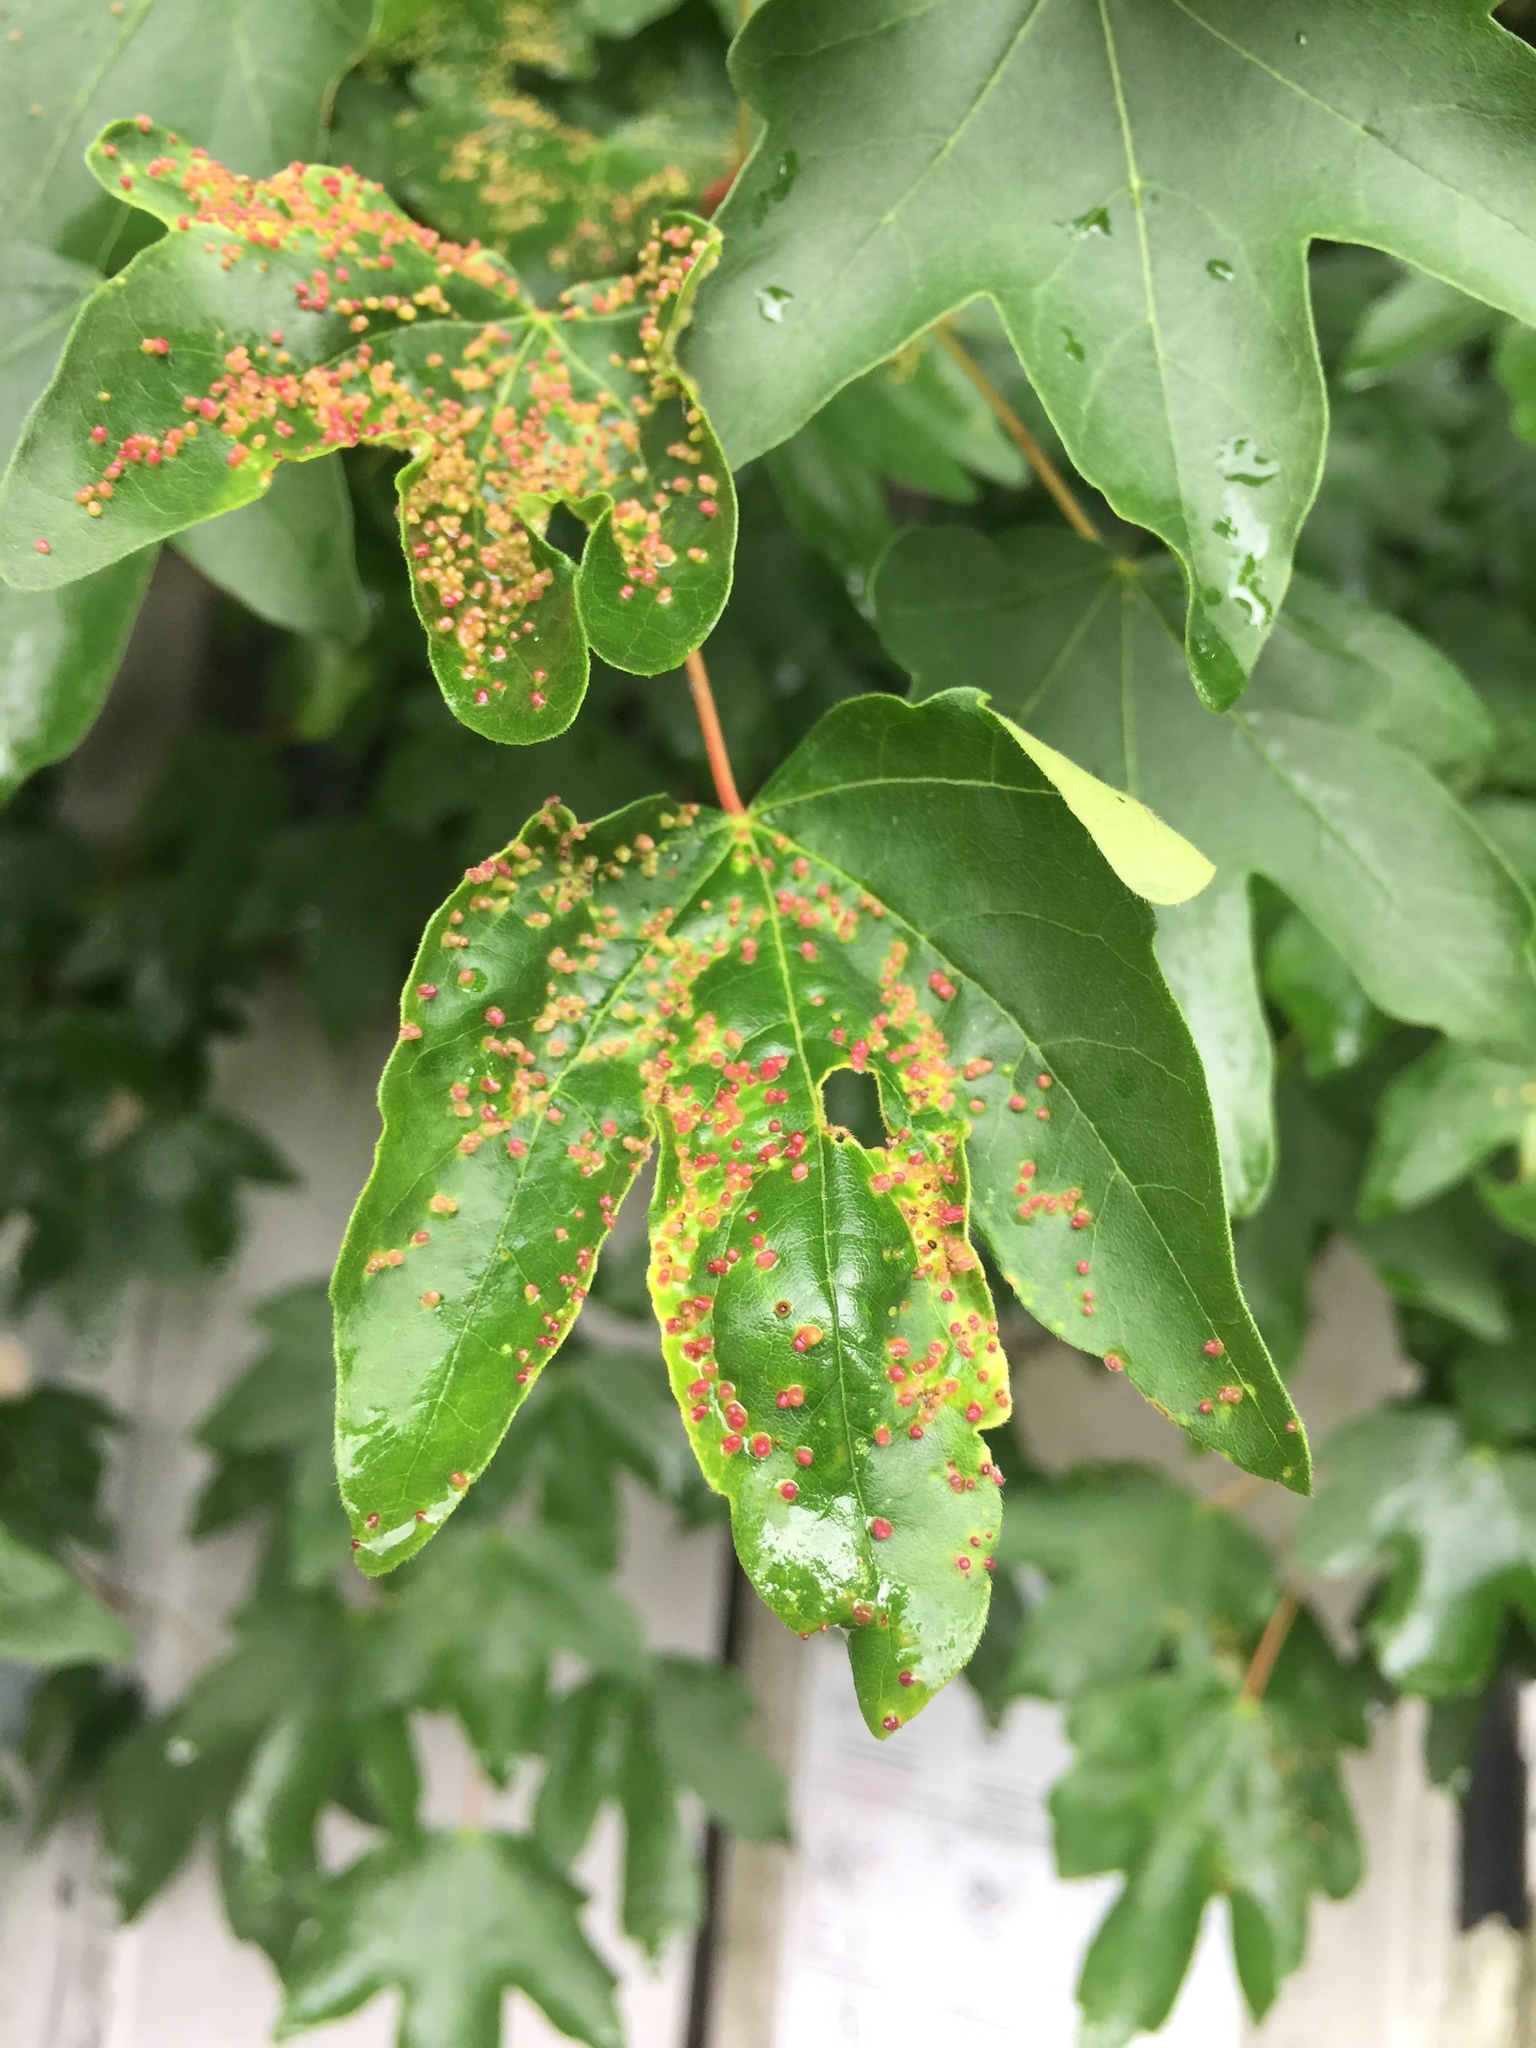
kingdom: Animalia
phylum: Arthropoda
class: Arachnida
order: Trombidiformes
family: Eriophyidae
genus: Aceria
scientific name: Aceria myriadeum
